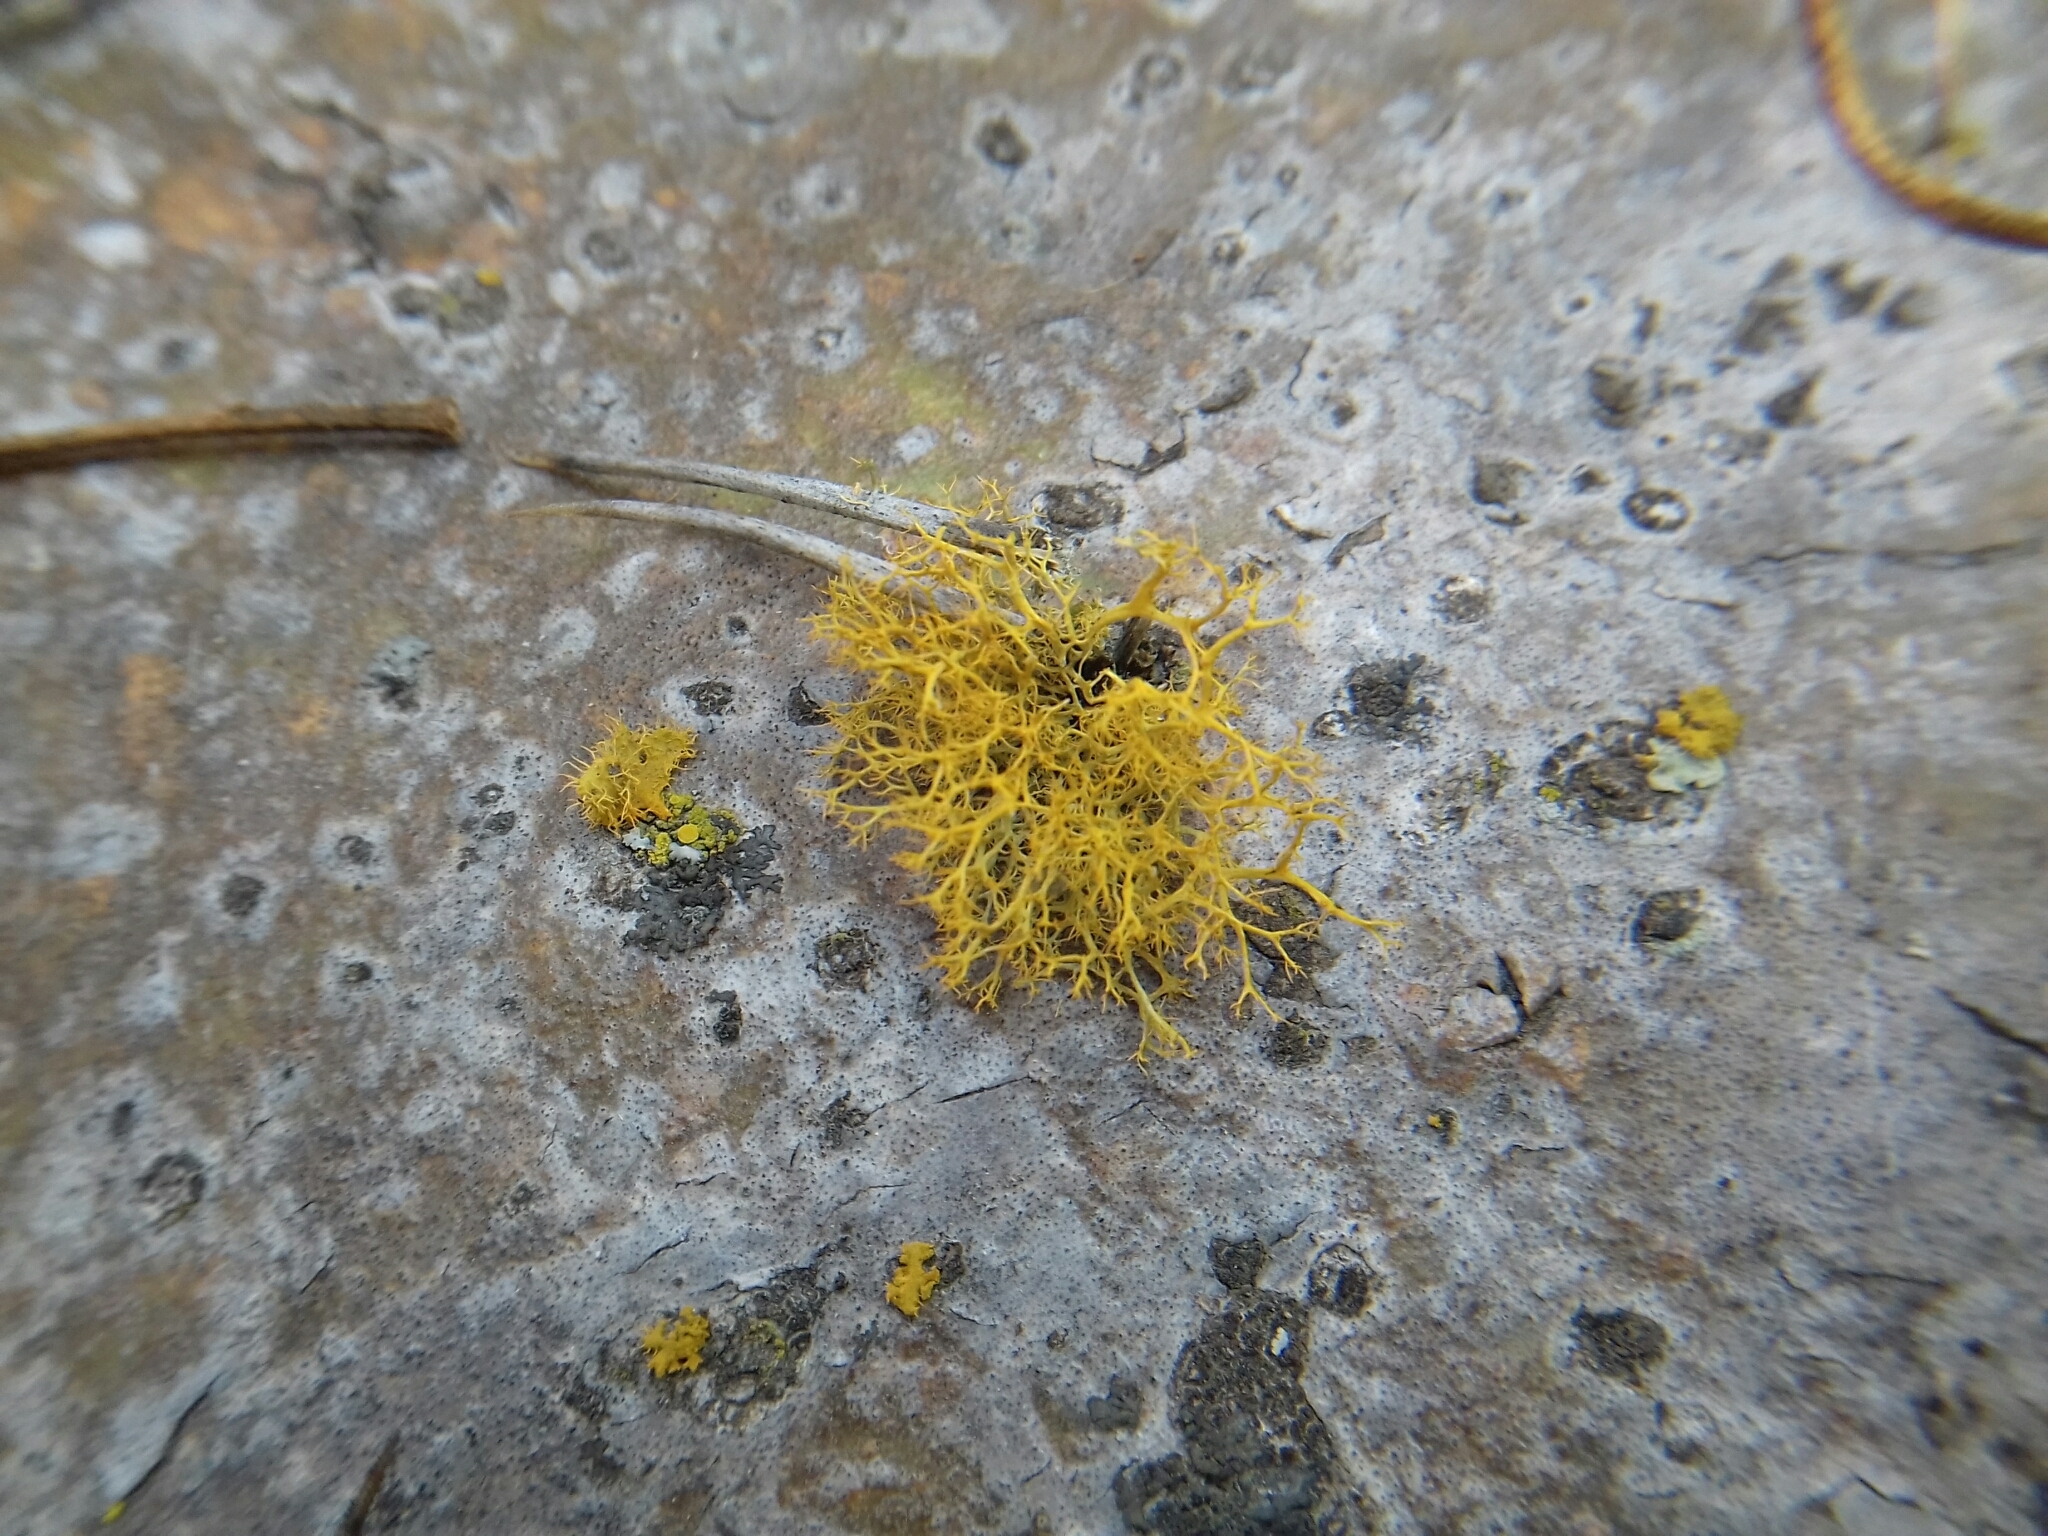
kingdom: Fungi
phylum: Ascomycota
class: Lecanoromycetes
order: Teloschistales
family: Teloschistaceae
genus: Niorma
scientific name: Niorma chrysophthalma
